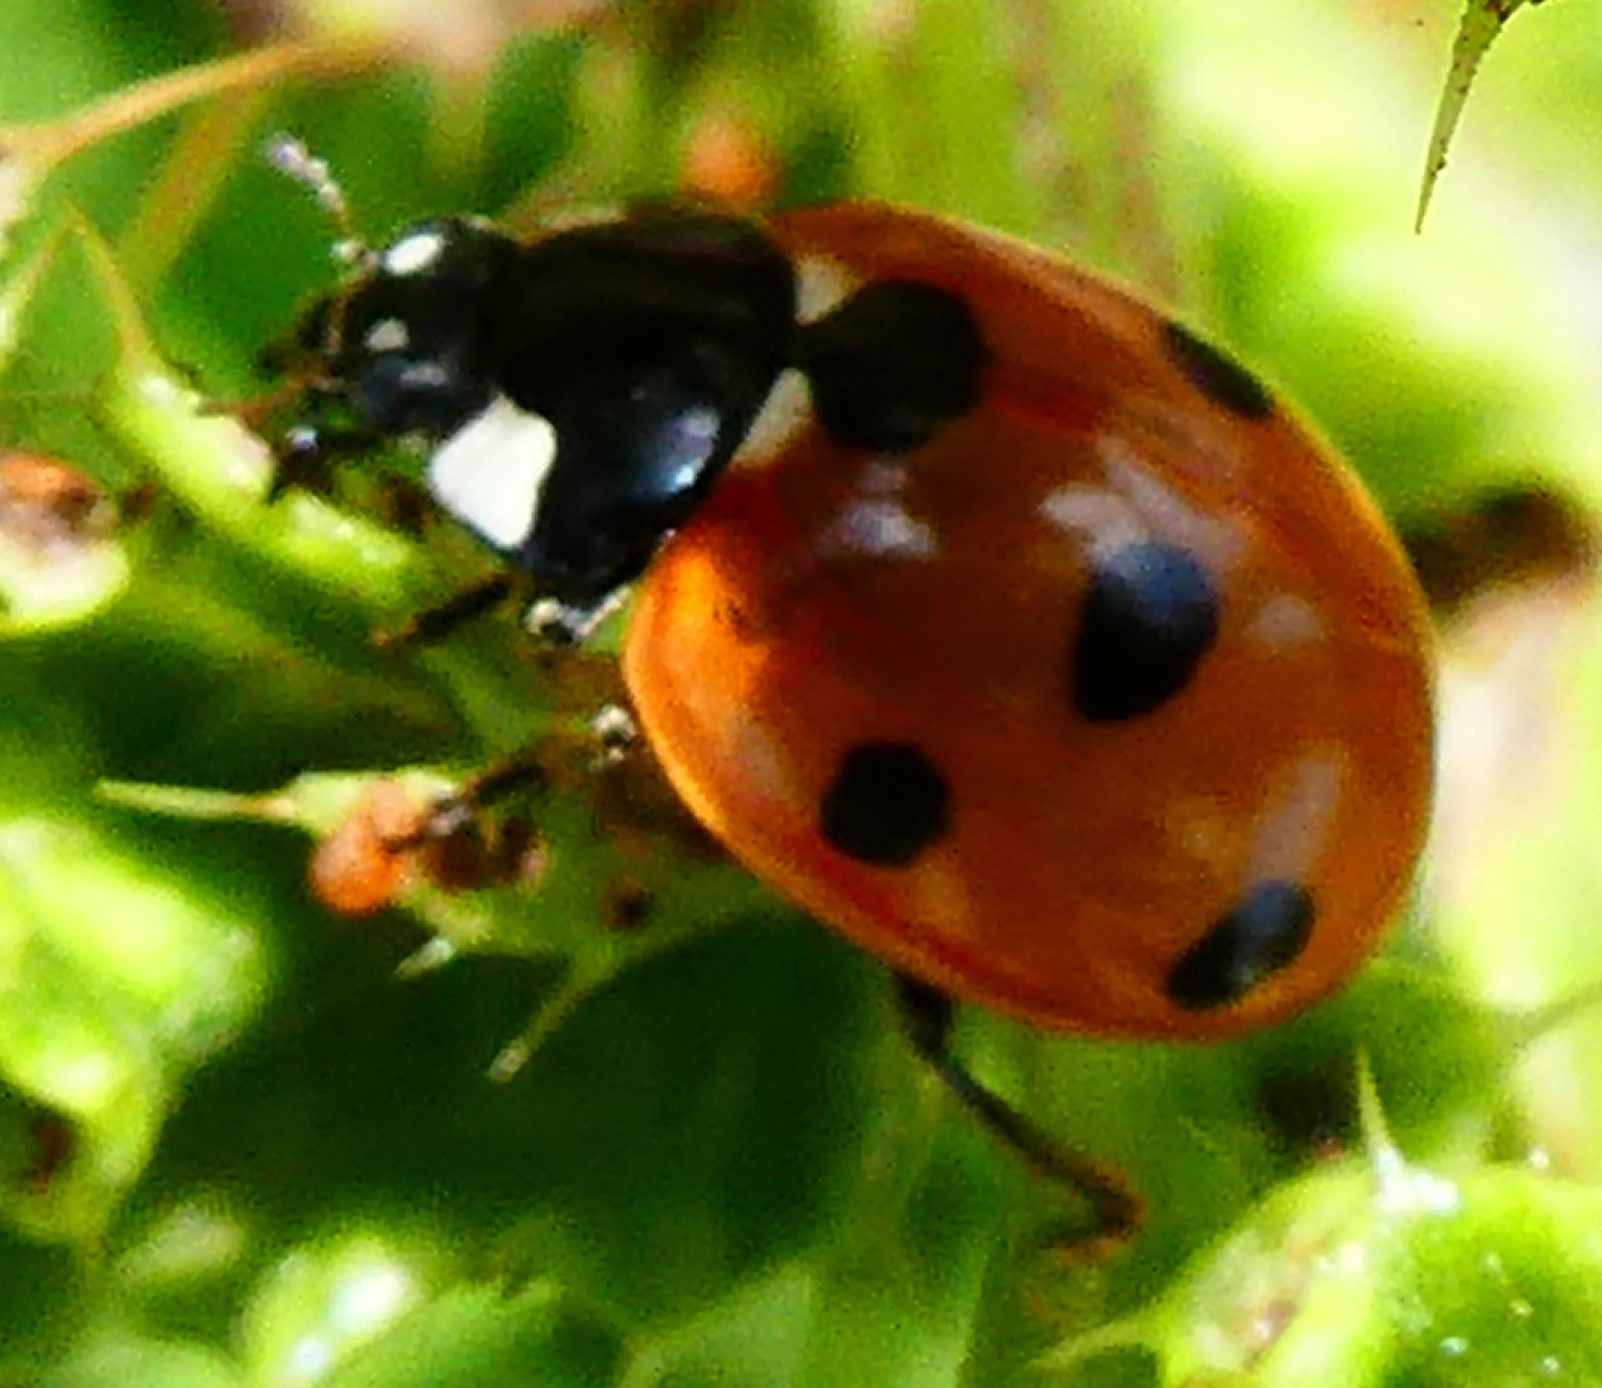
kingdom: Animalia
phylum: Arthropoda
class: Insecta
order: Coleoptera
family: Coccinellidae
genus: Coccinella
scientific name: Coccinella septempunctata
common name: Sevenspotted lady beetle
